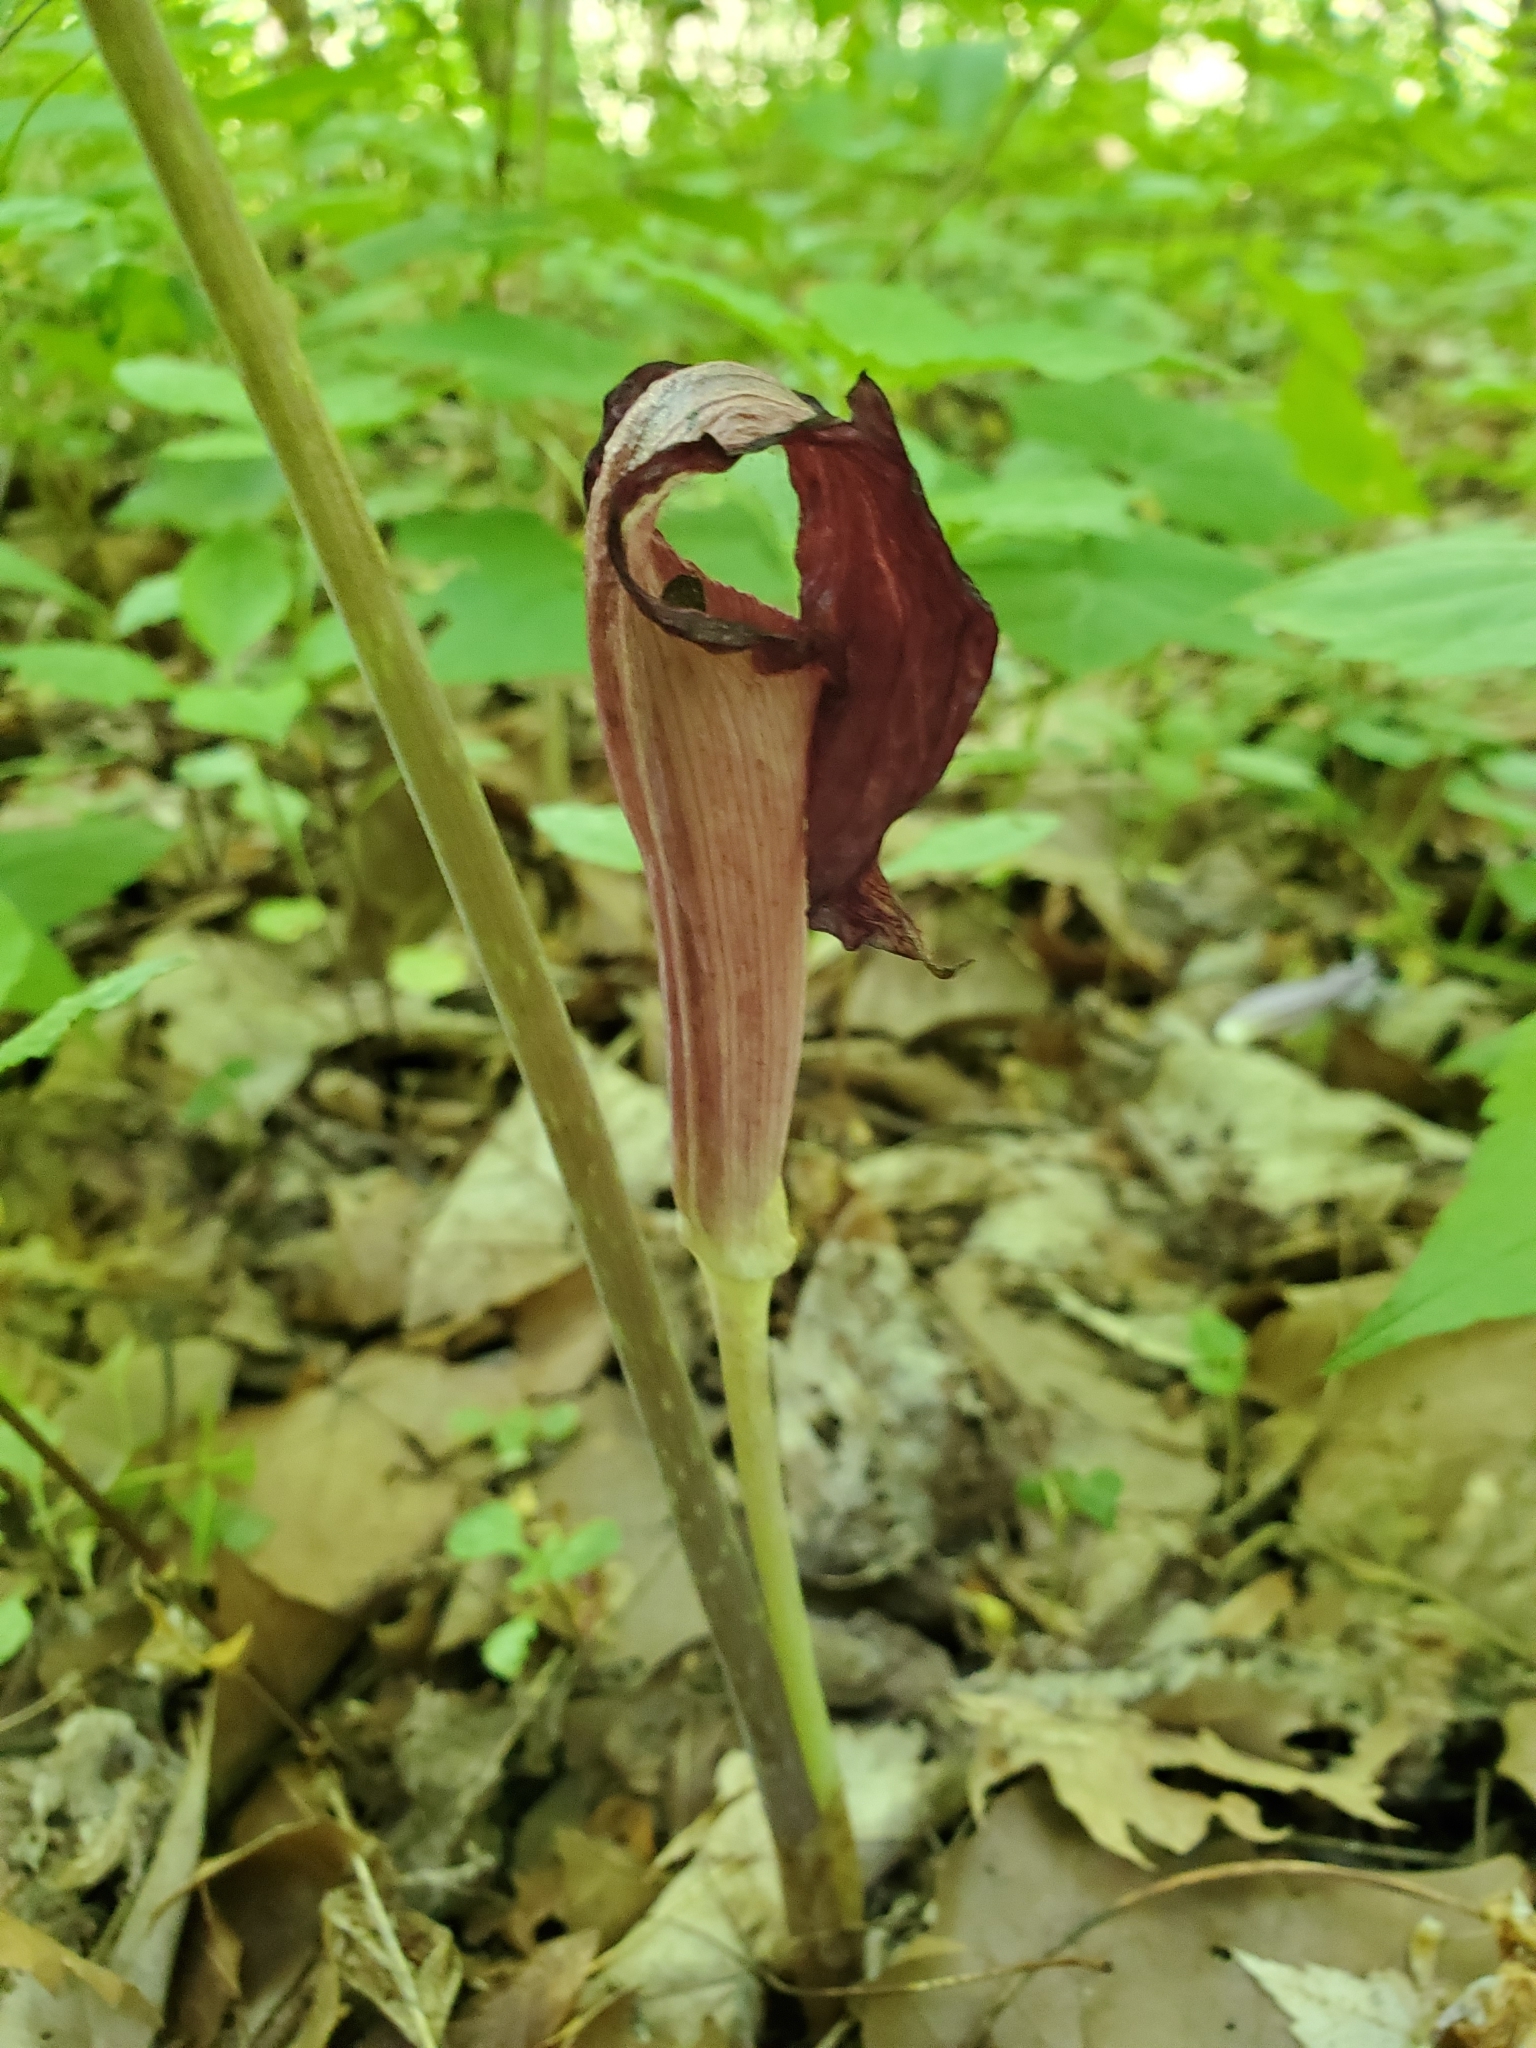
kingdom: Plantae
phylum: Tracheophyta
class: Liliopsida
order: Alismatales
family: Araceae
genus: Arisaema
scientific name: Arisaema triphyllum
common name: Jack-in-the-pulpit
